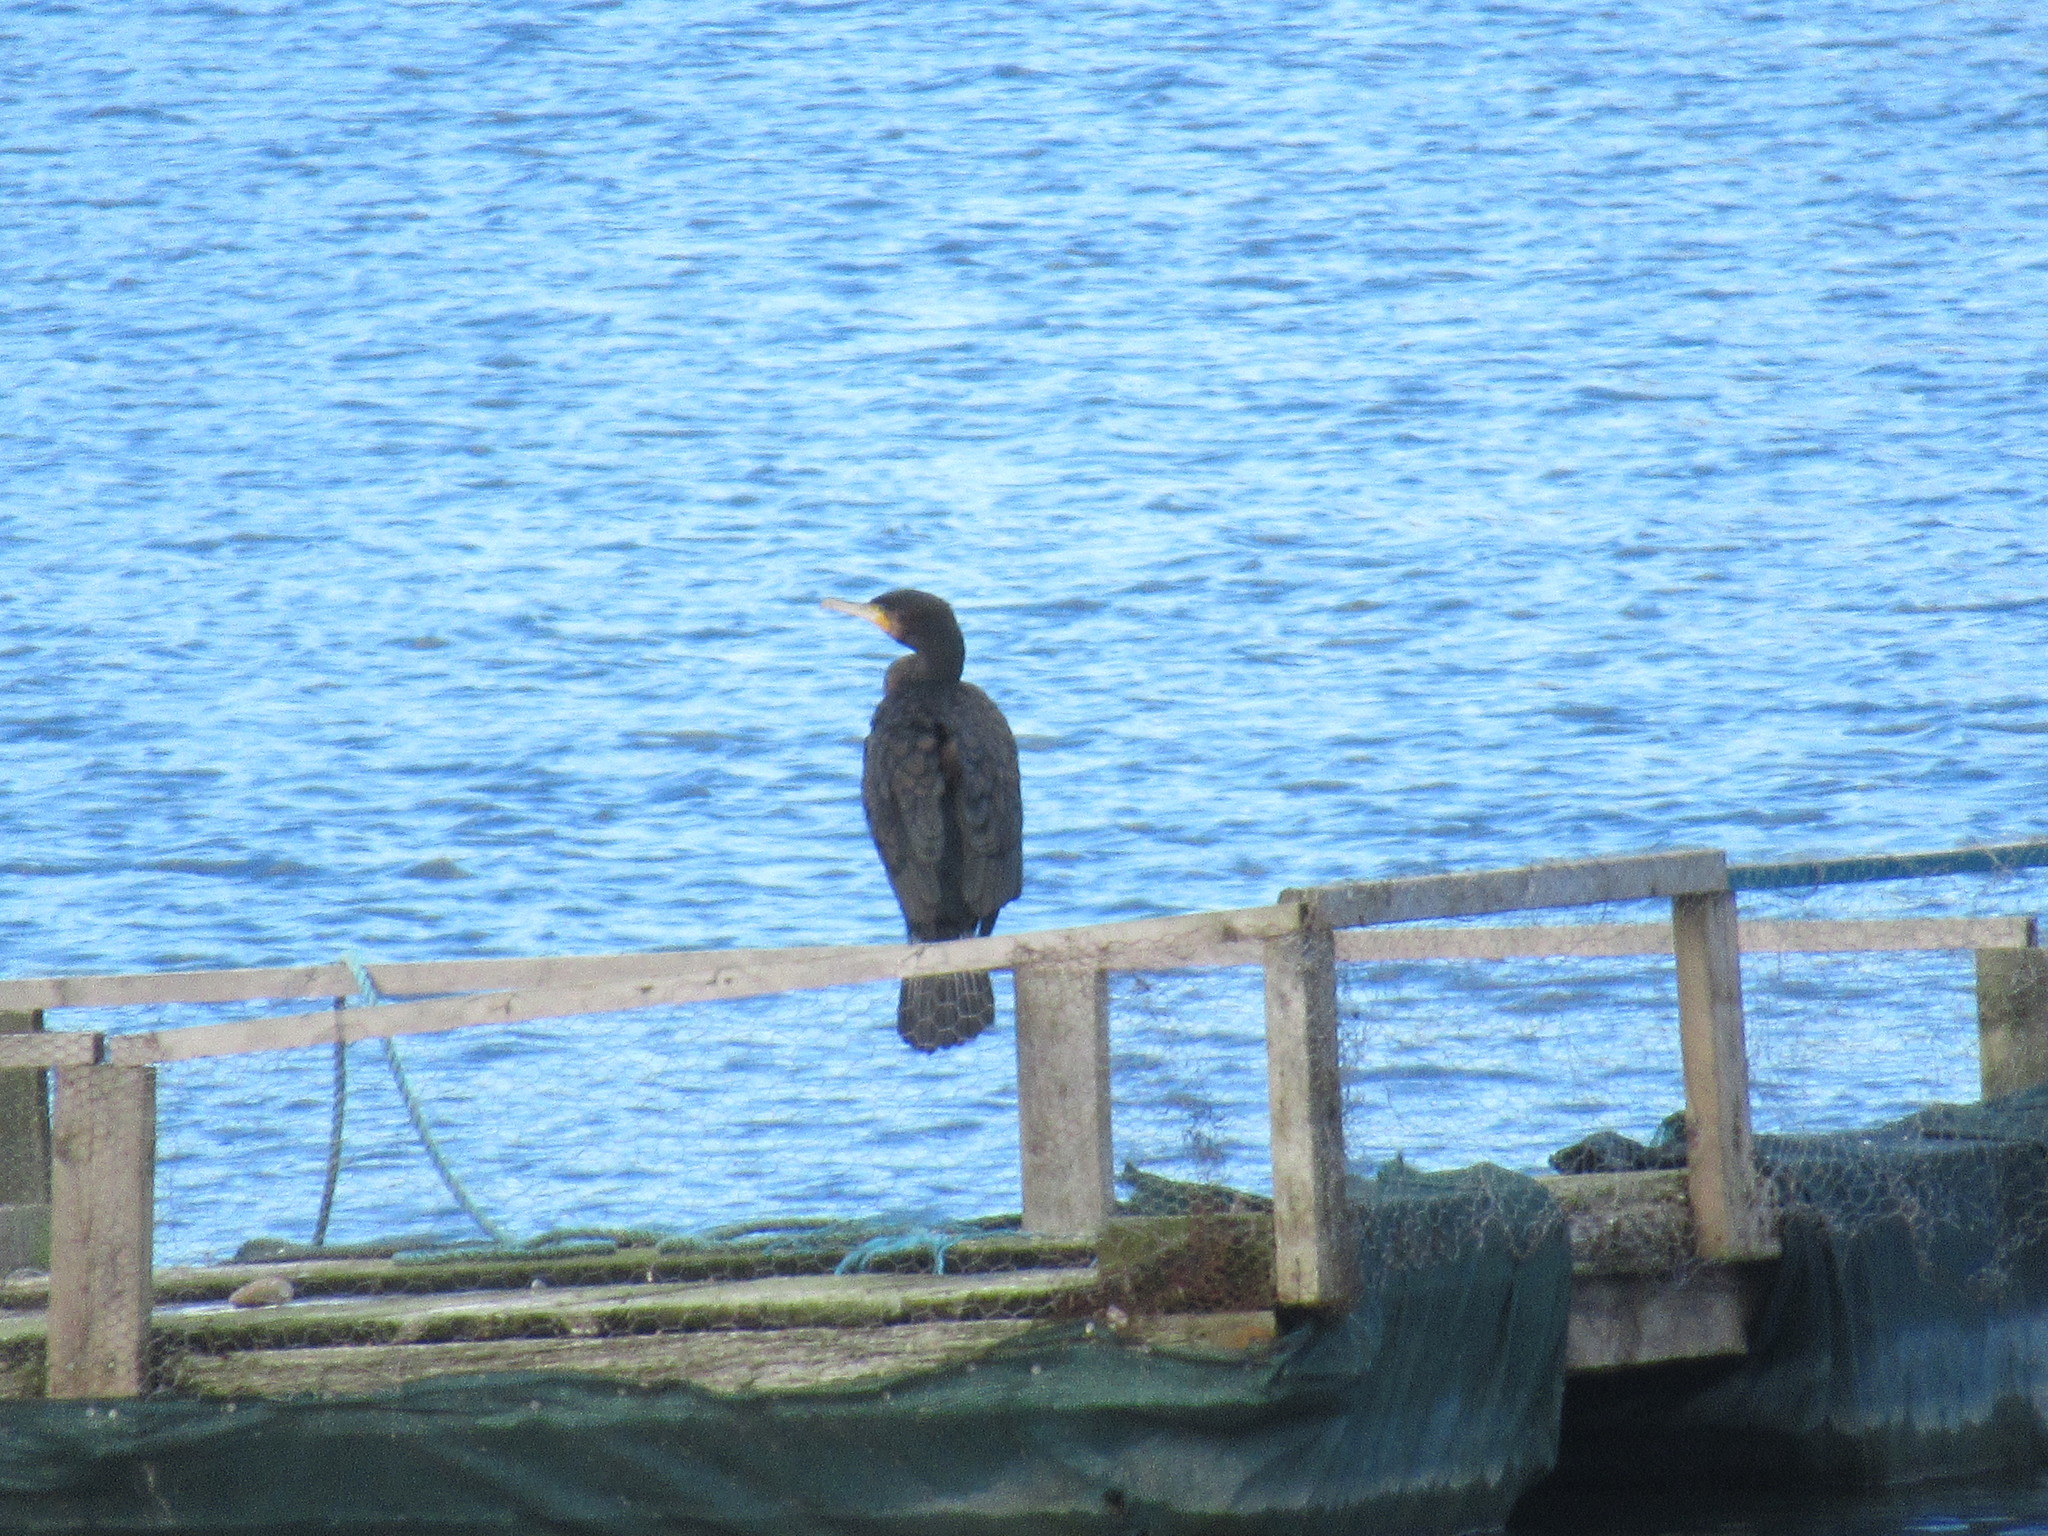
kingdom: Animalia
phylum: Chordata
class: Aves
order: Suliformes
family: Phalacrocoracidae
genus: Phalacrocorax
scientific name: Phalacrocorax carbo
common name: Great cormorant
